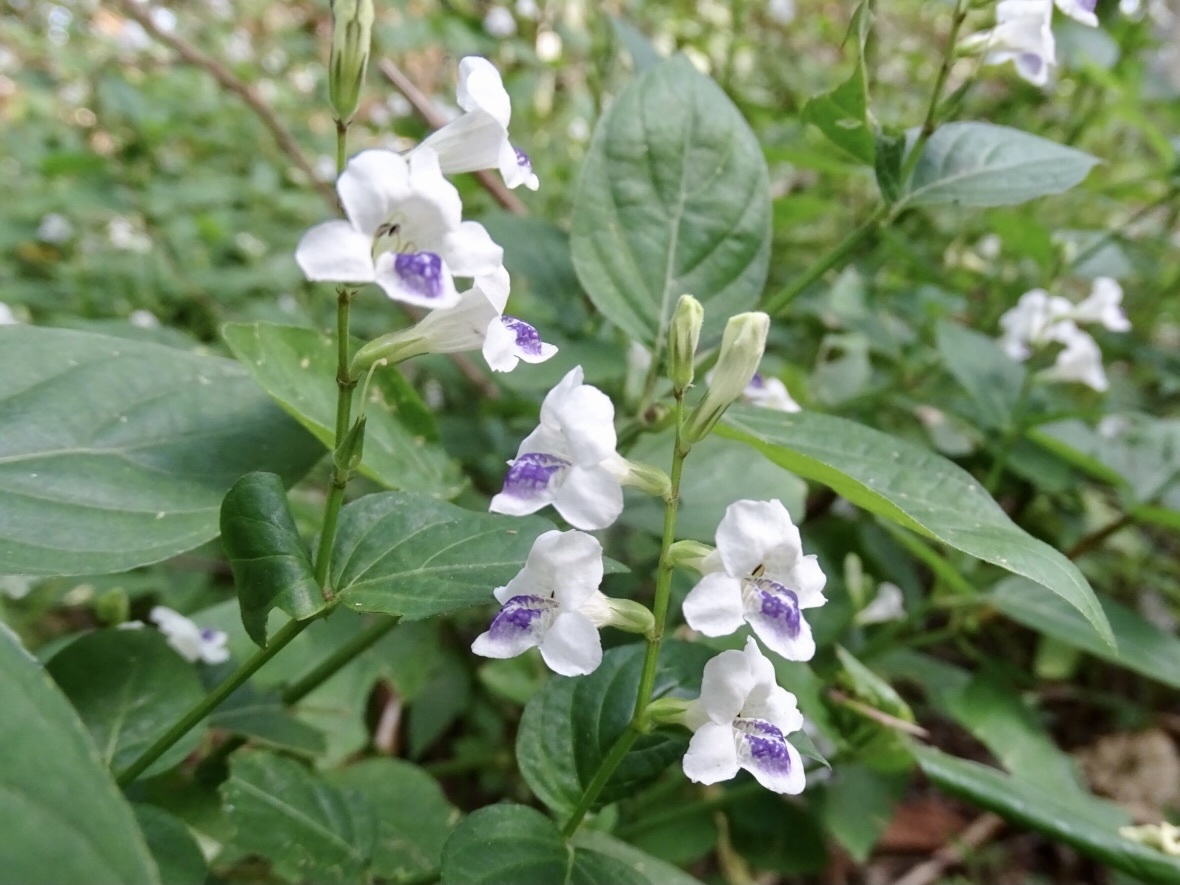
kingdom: Plantae
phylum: Tracheophyta
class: Magnoliopsida
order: Lamiales
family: Acanthaceae
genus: Asystasia
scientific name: Asystasia intrusa
